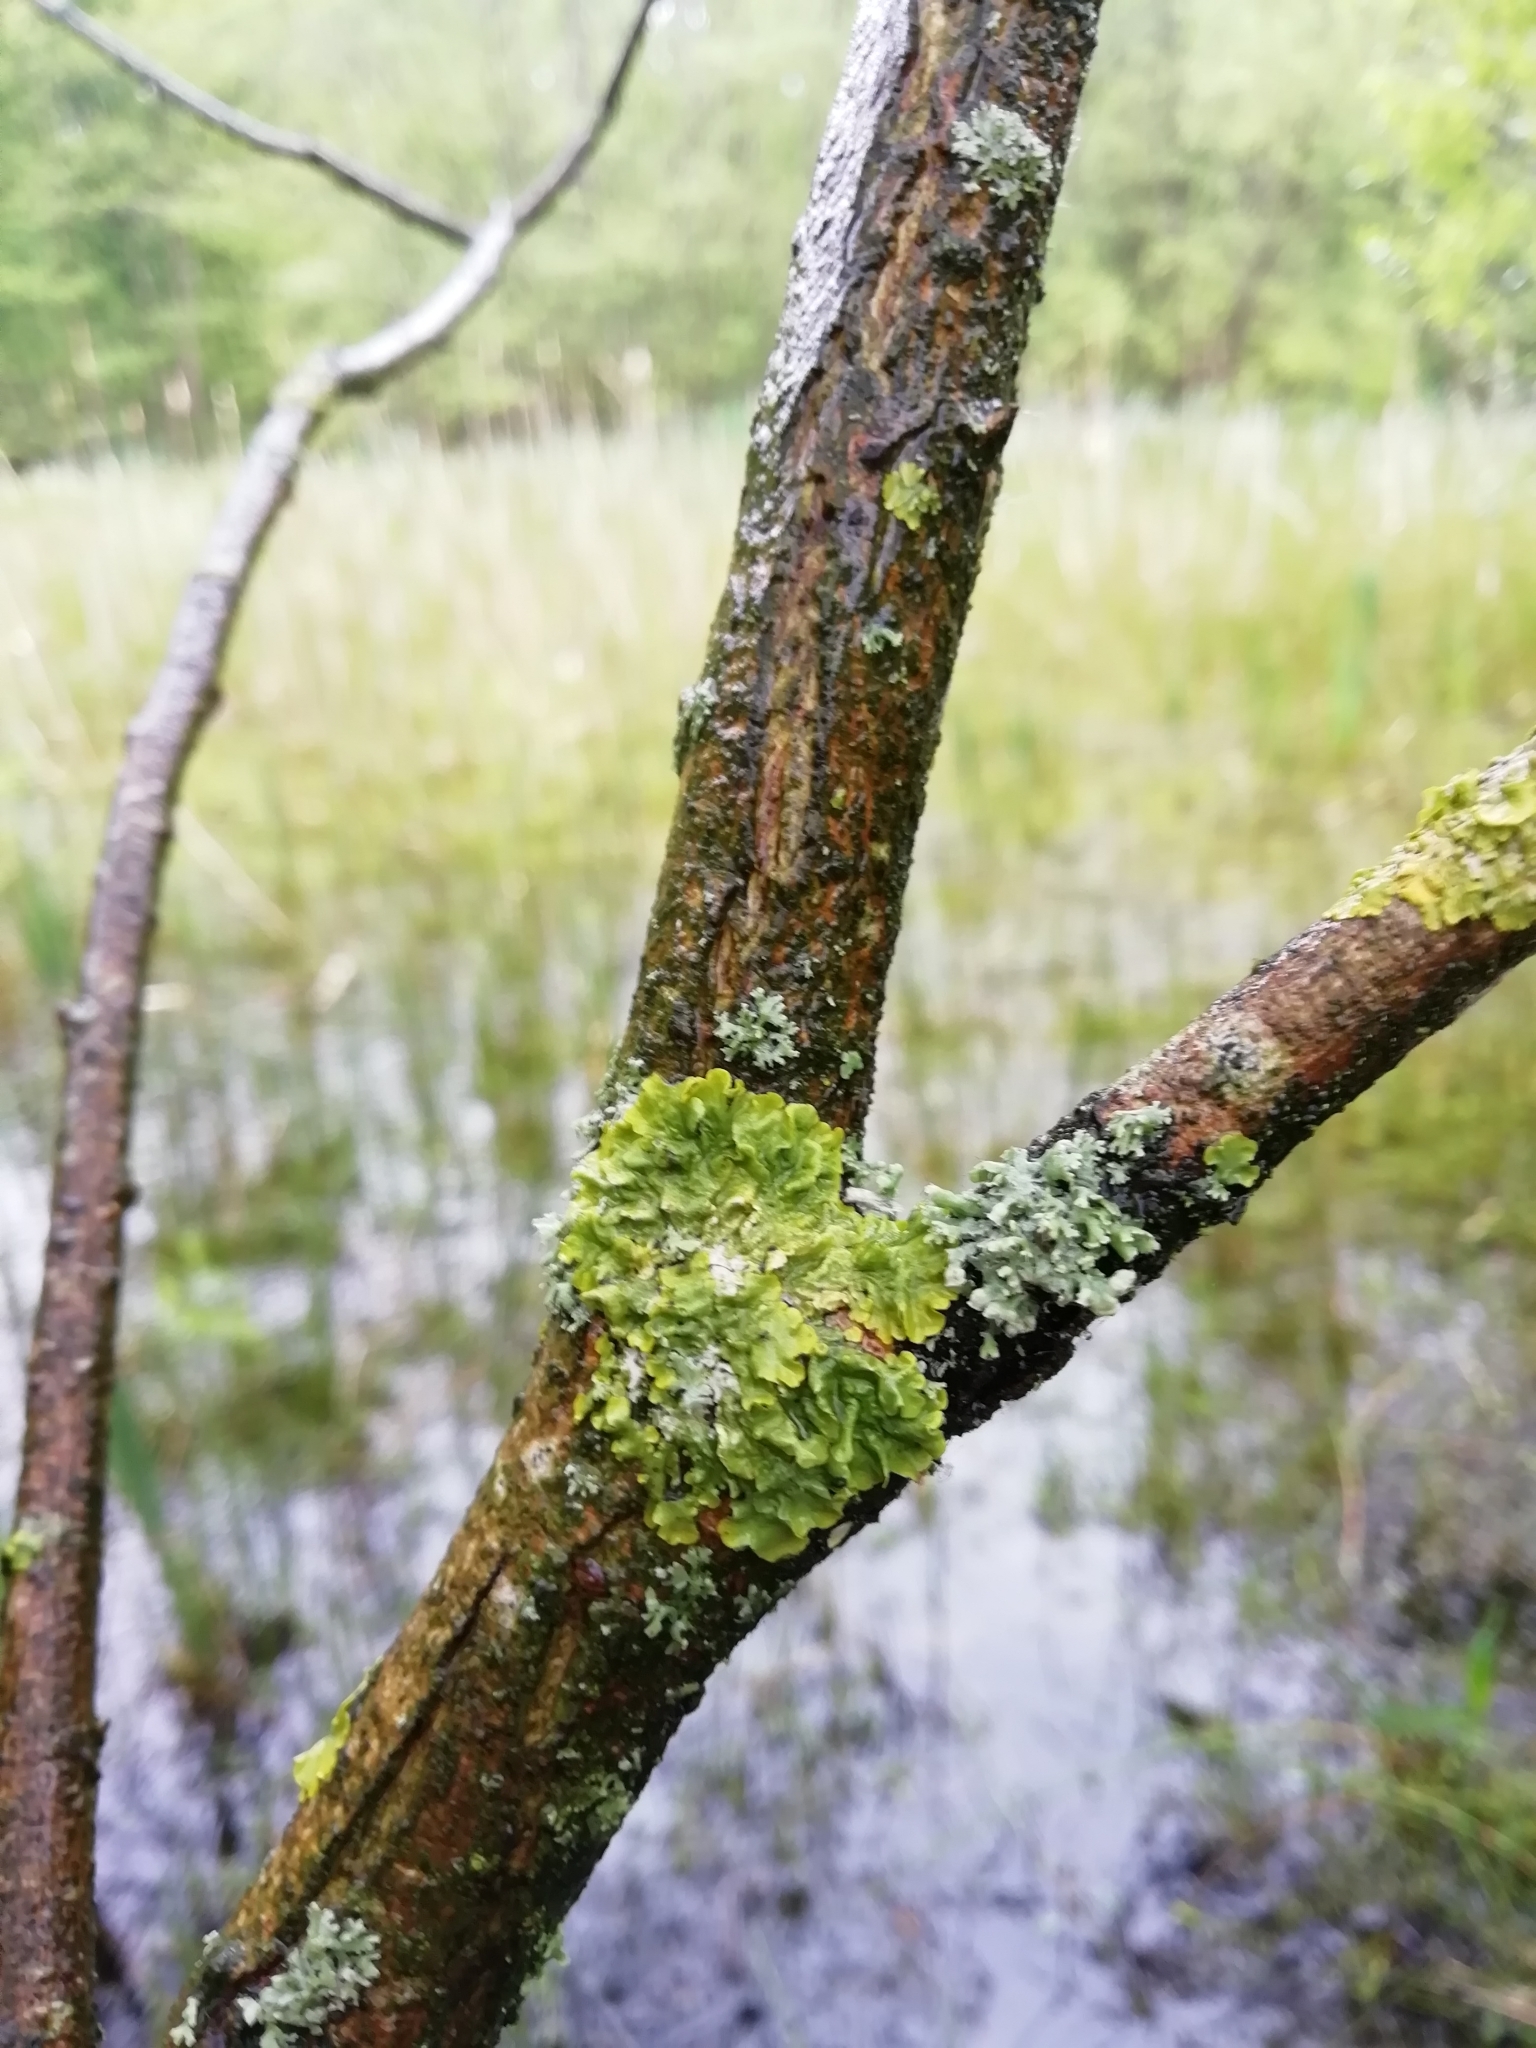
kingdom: Fungi
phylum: Ascomycota
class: Lecanoromycetes
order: Teloschistales
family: Teloschistaceae
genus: Xanthoria
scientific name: Xanthoria parietina
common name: Common orange lichen
